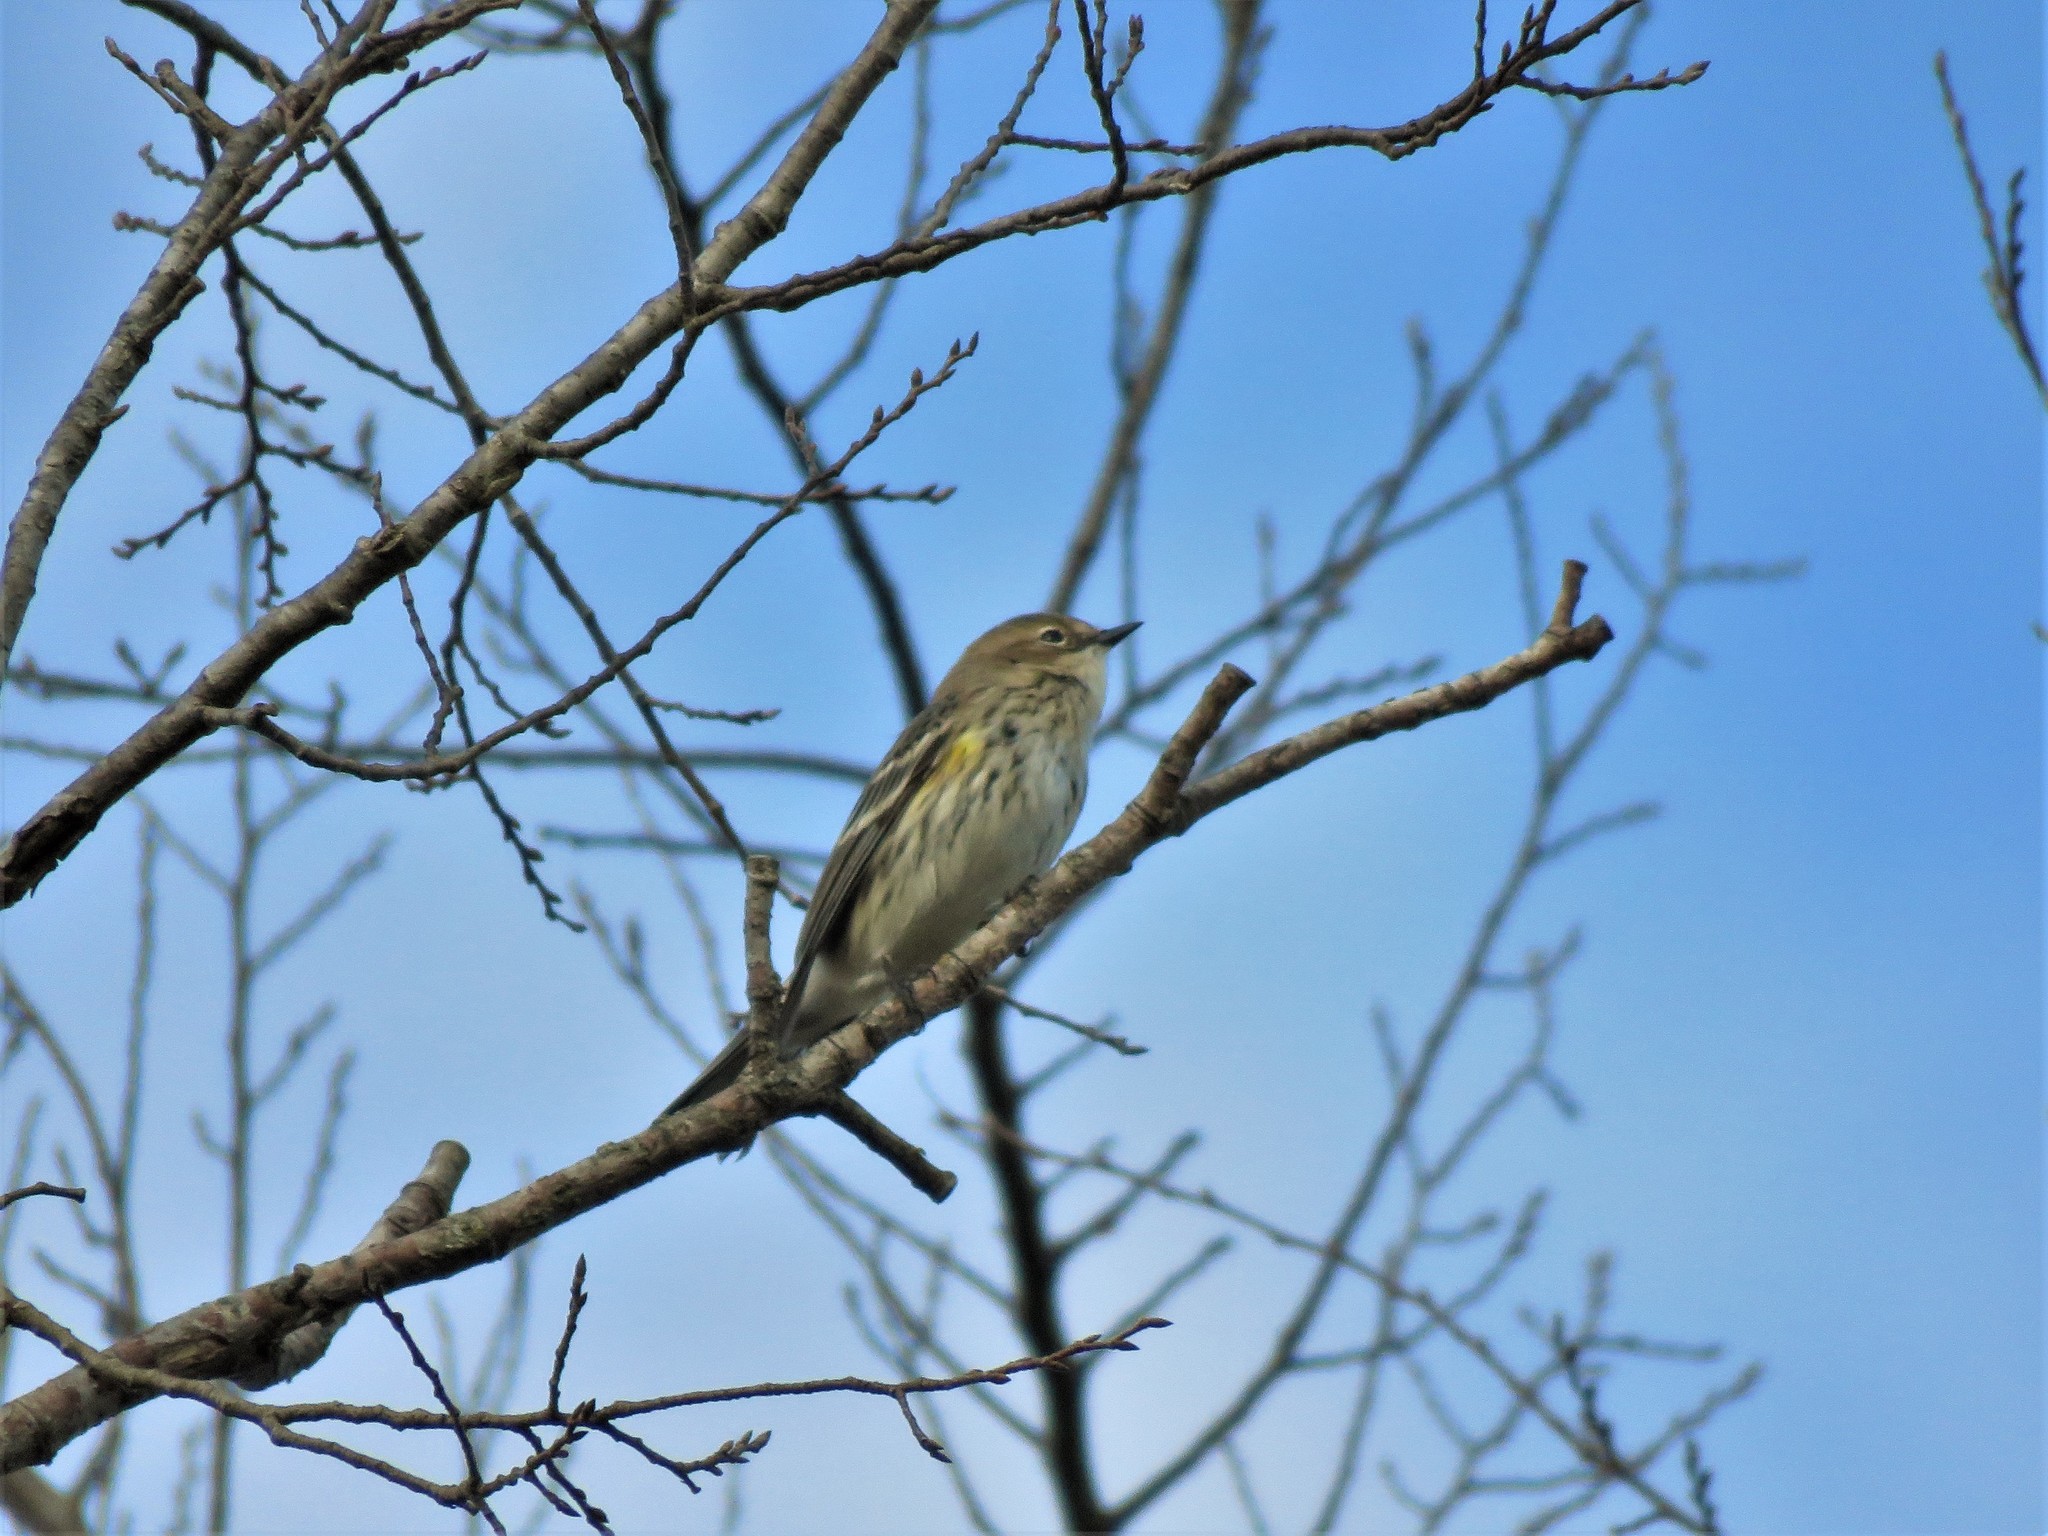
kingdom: Animalia
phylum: Chordata
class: Aves
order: Passeriformes
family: Parulidae
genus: Setophaga
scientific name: Setophaga coronata
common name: Myrtle warbler
